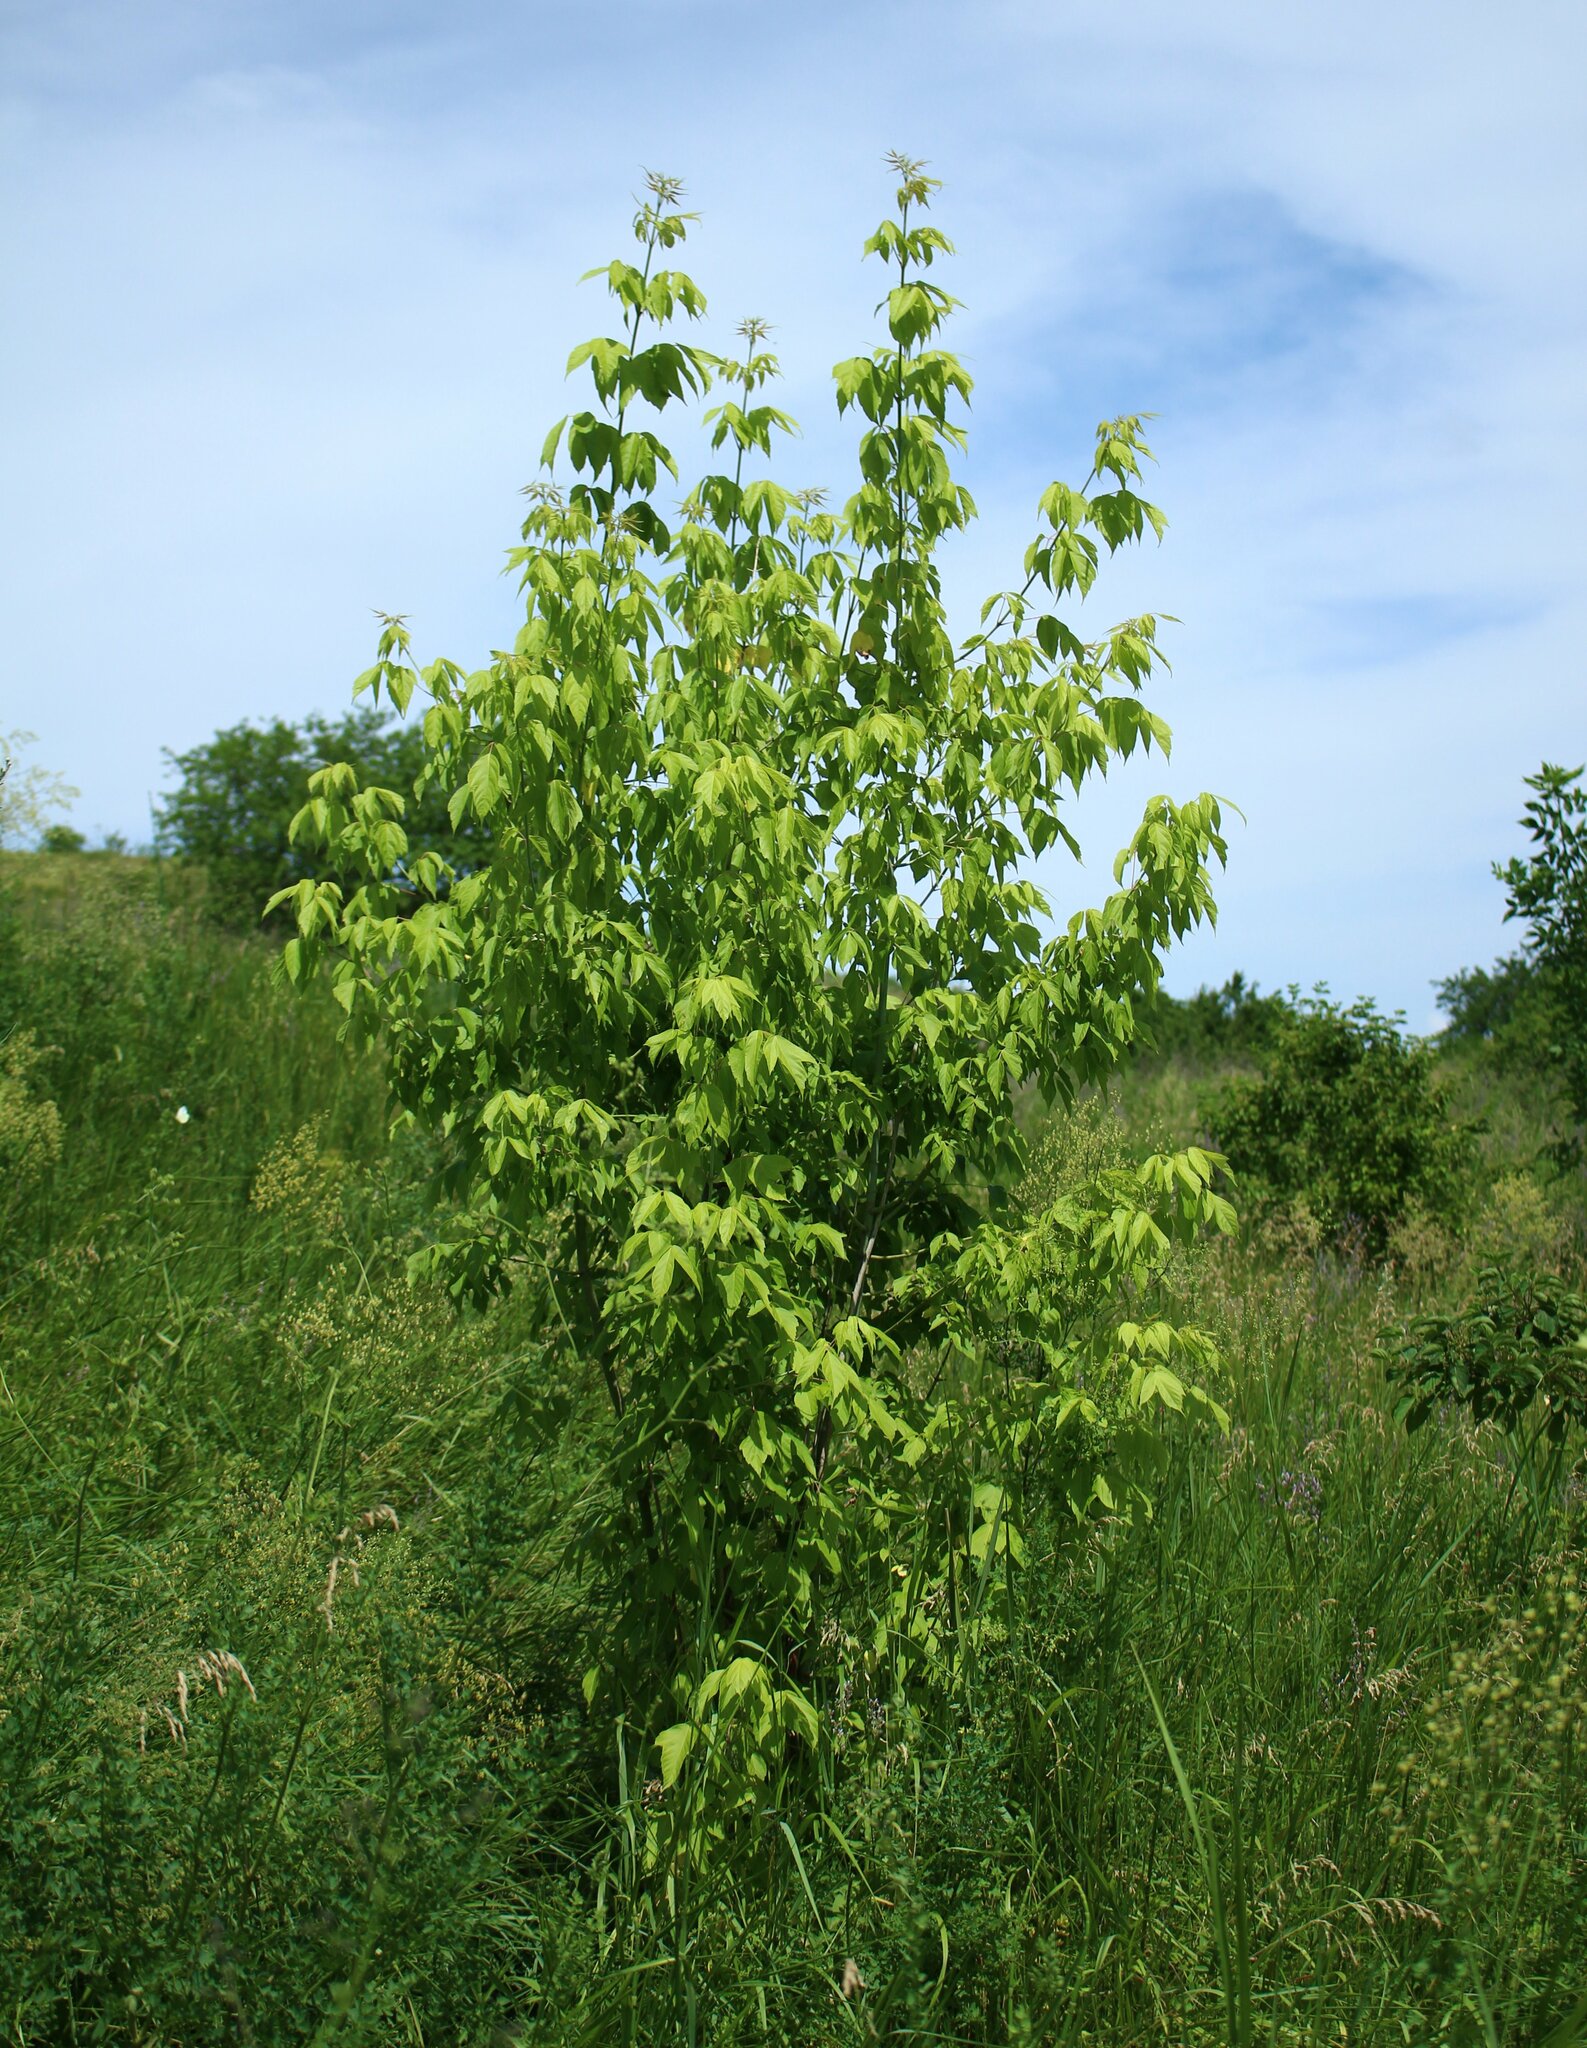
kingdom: Plantae
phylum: Tracheophyta
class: Magnoliopsida
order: Sapindales
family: Sapindaceae
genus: Acer
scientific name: Acer negundo
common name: Ashleaf maple
